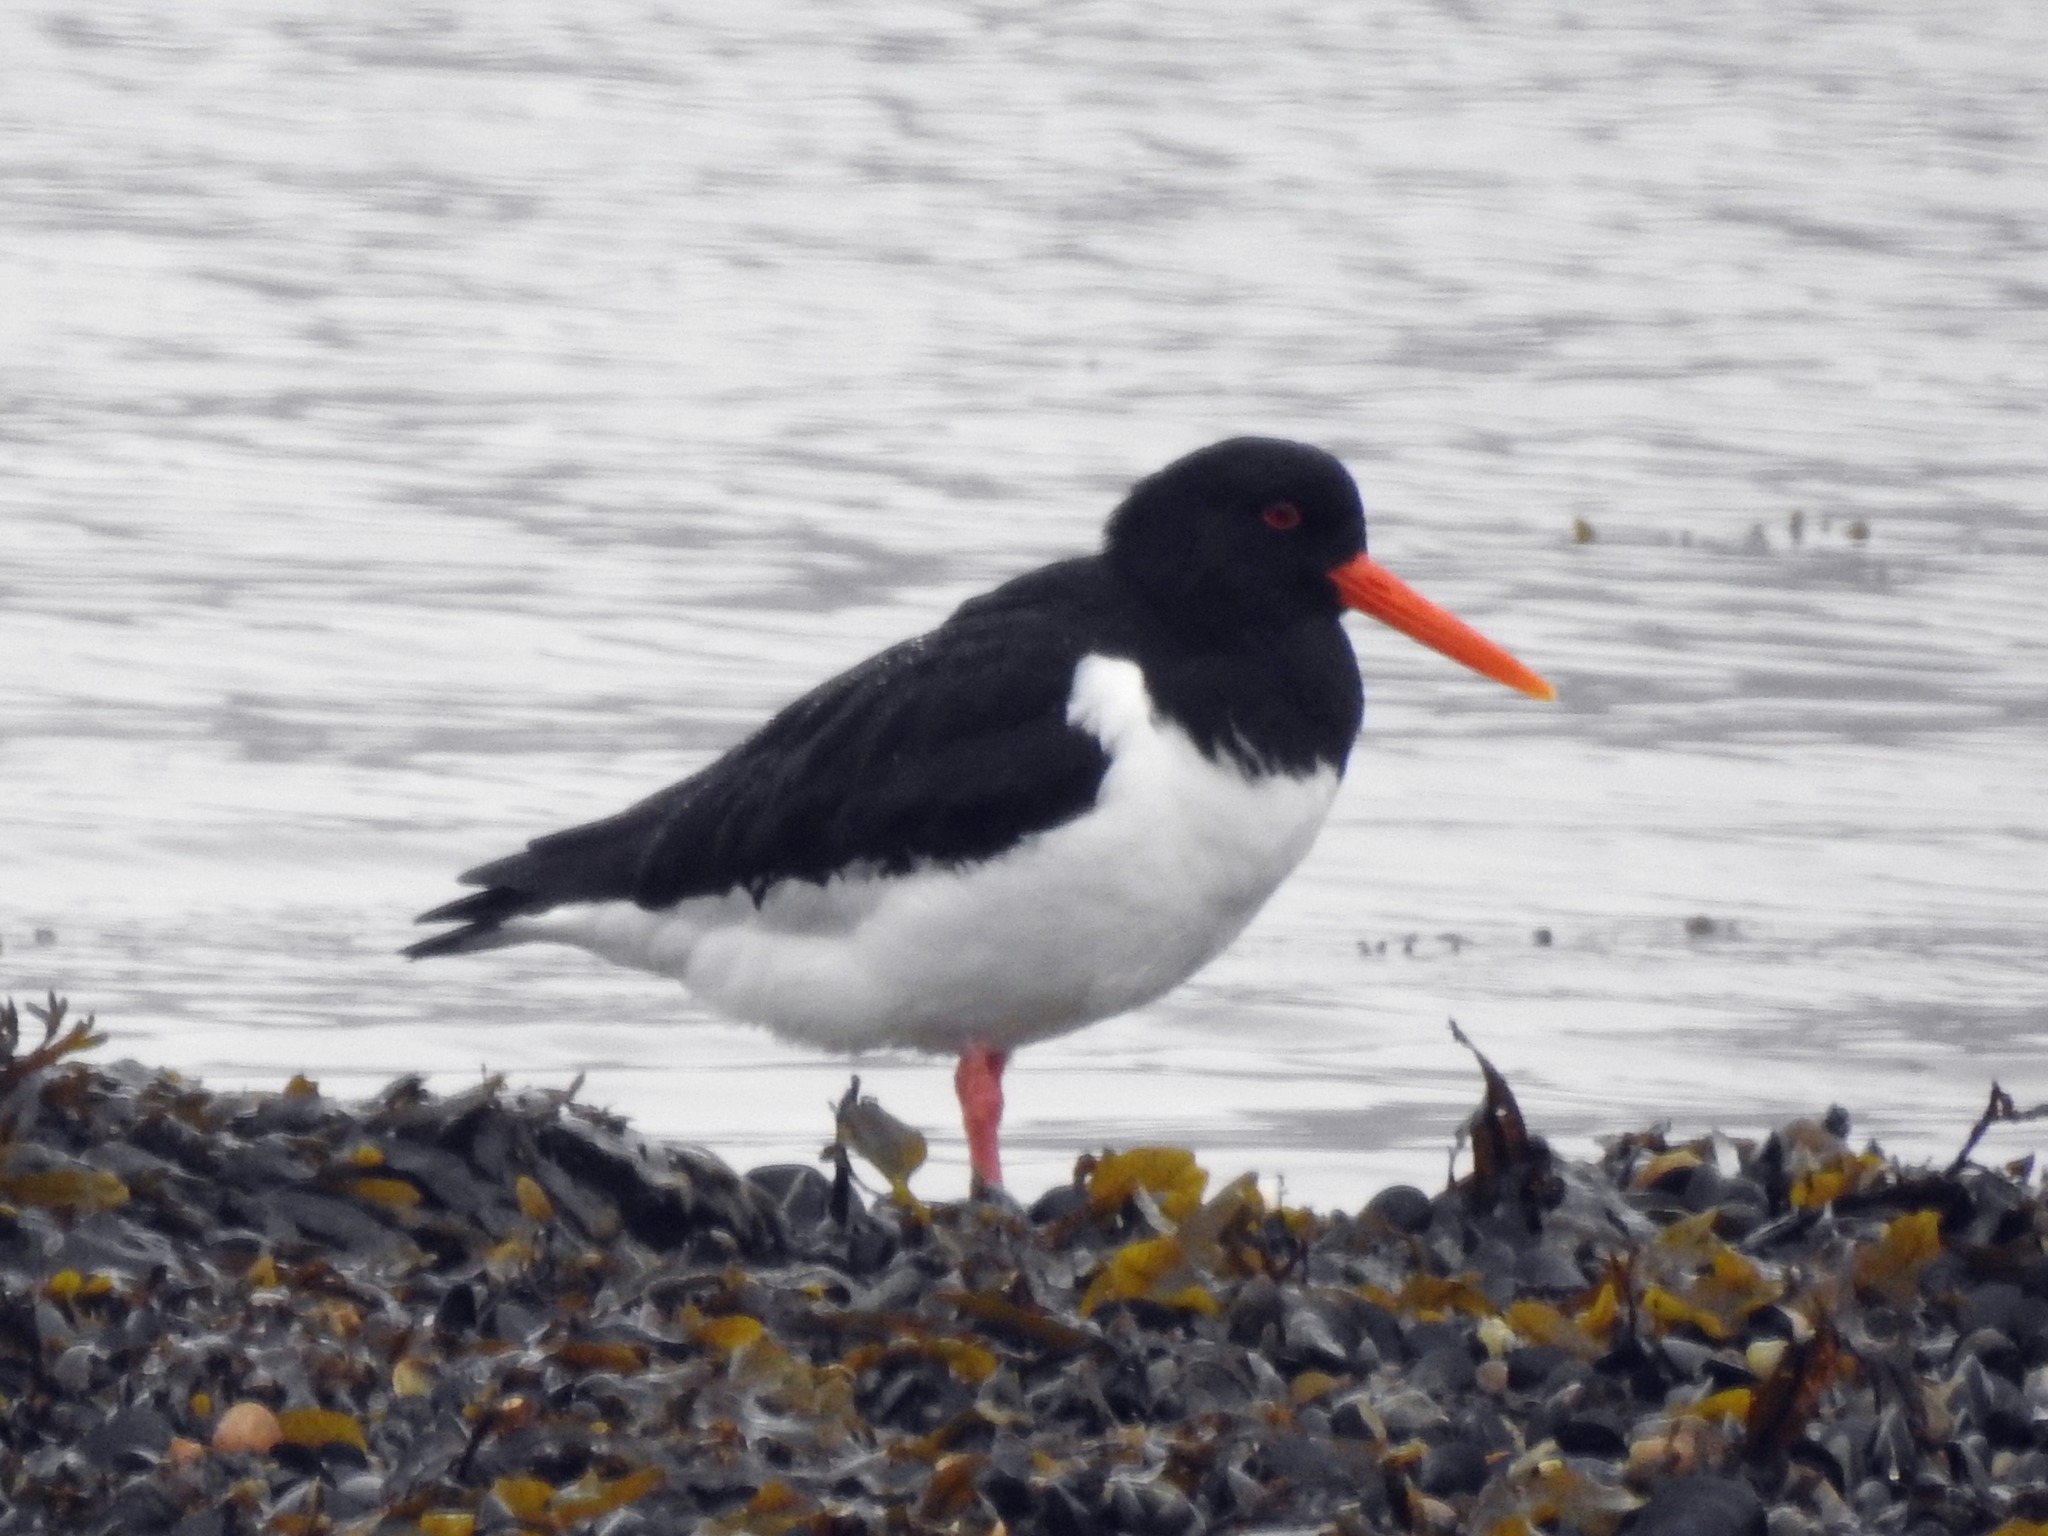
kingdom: Animalia
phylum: Chordata
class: Aves
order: Charadriiformes
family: Haematopodidae
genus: Haematopus
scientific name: Haematopus ostralegus
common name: Eurasian oystercatcher
